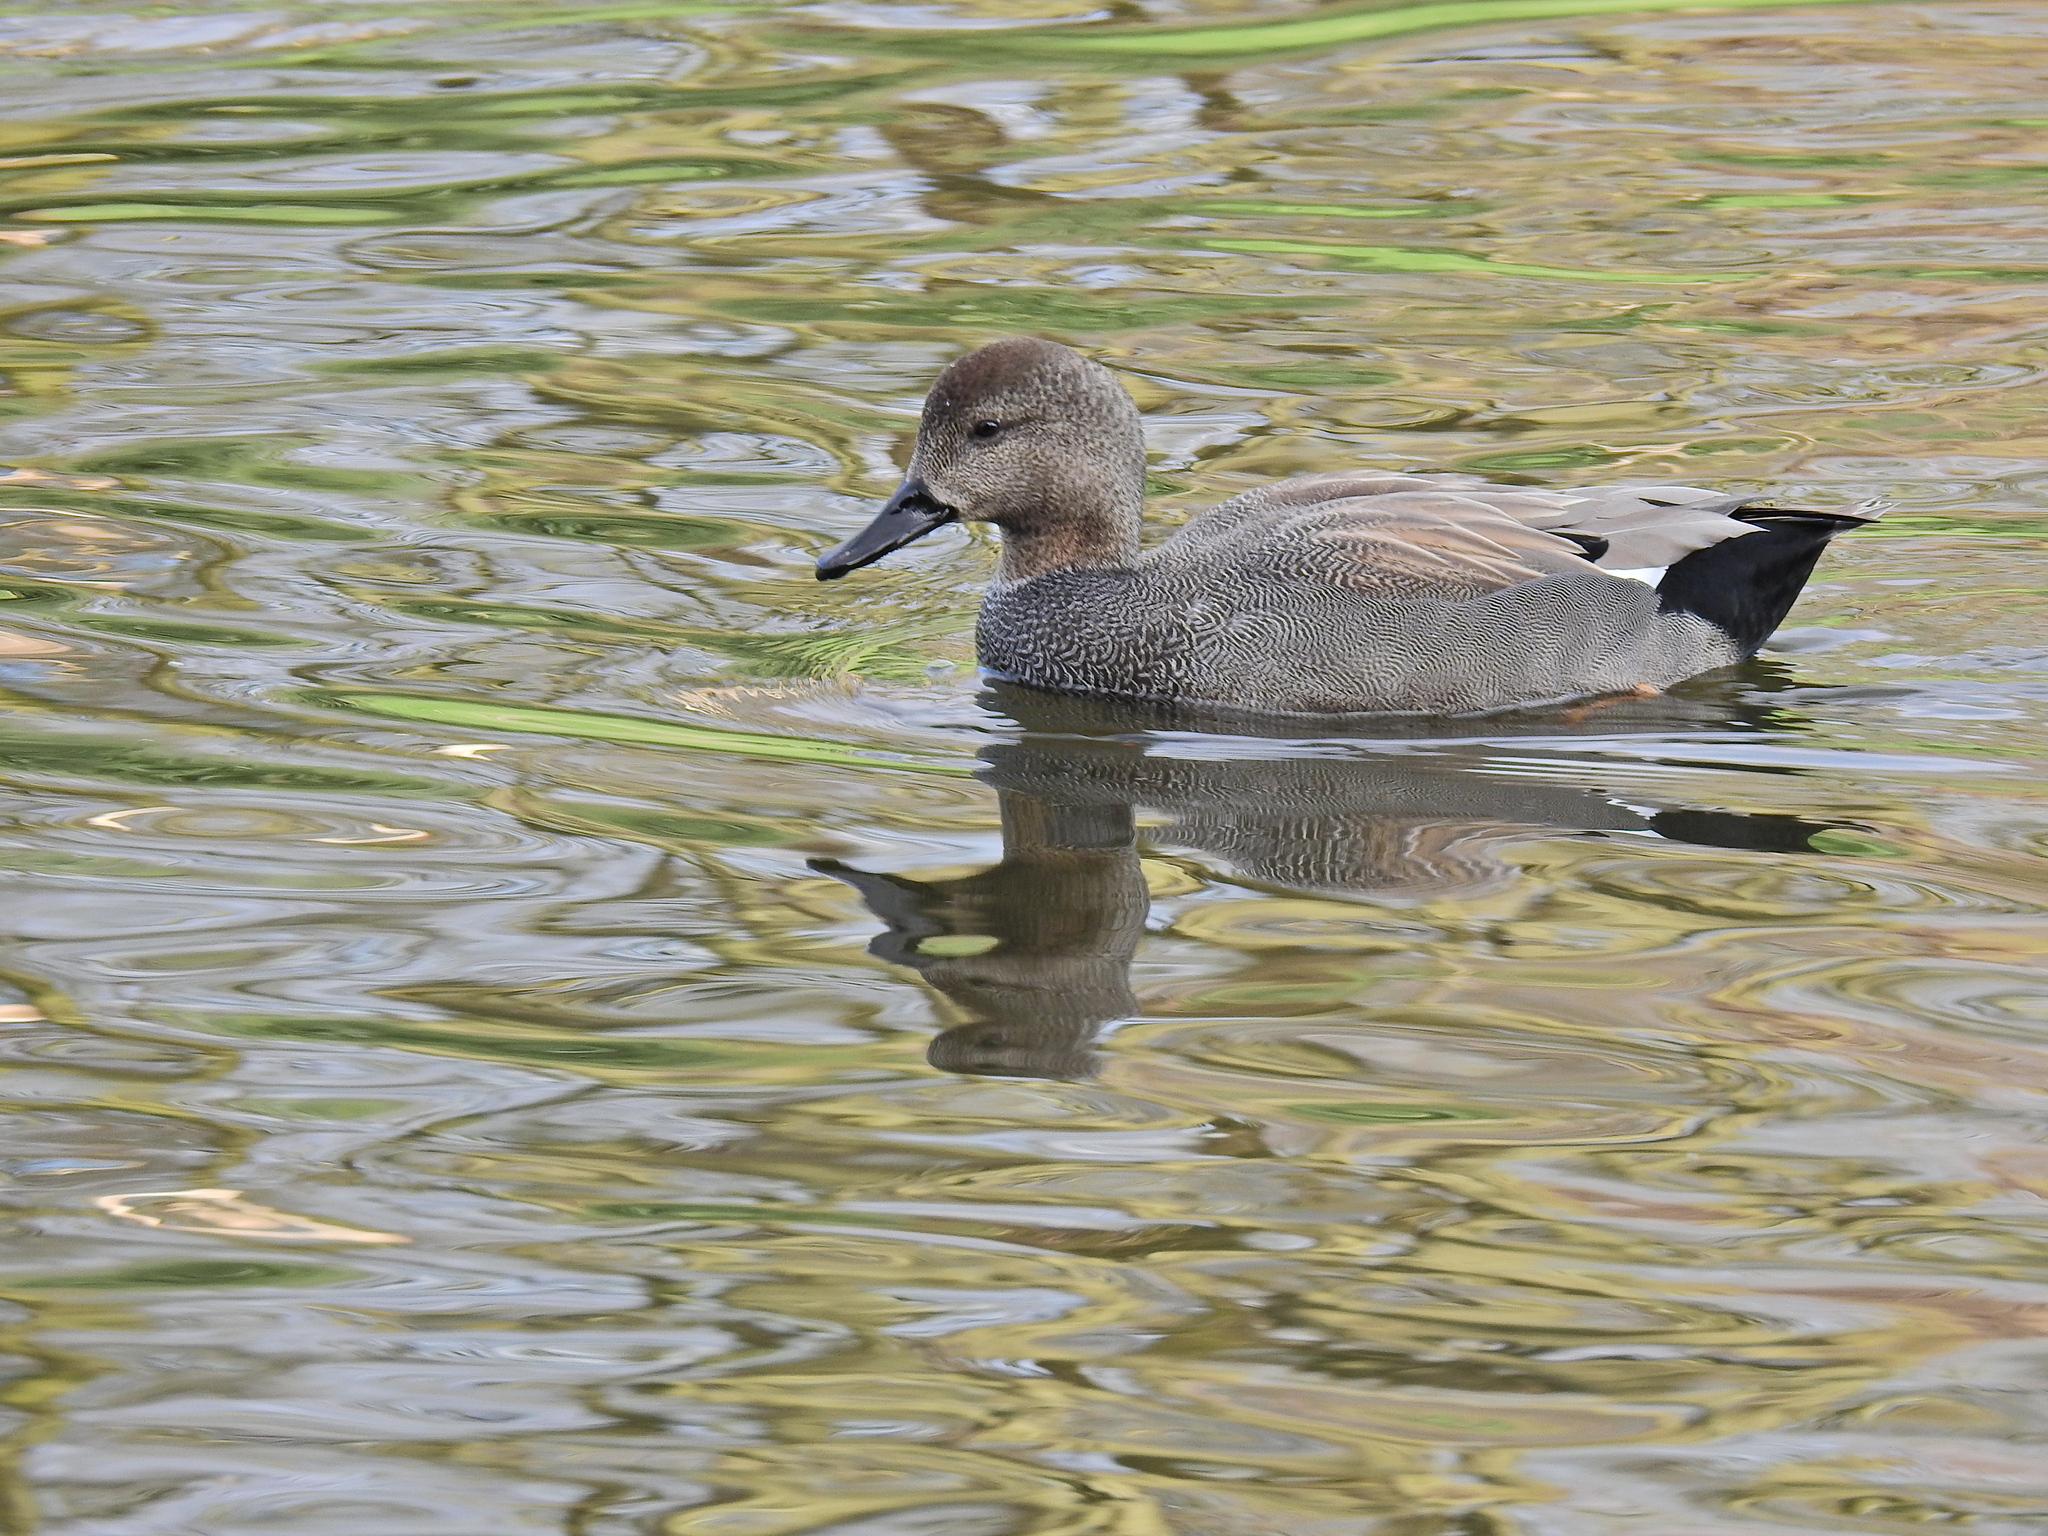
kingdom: Animalia
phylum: Chordata
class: Aves
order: Anseriformes
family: Anatidae
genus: Mareca
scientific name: Mareca strepera
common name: Gadwall
